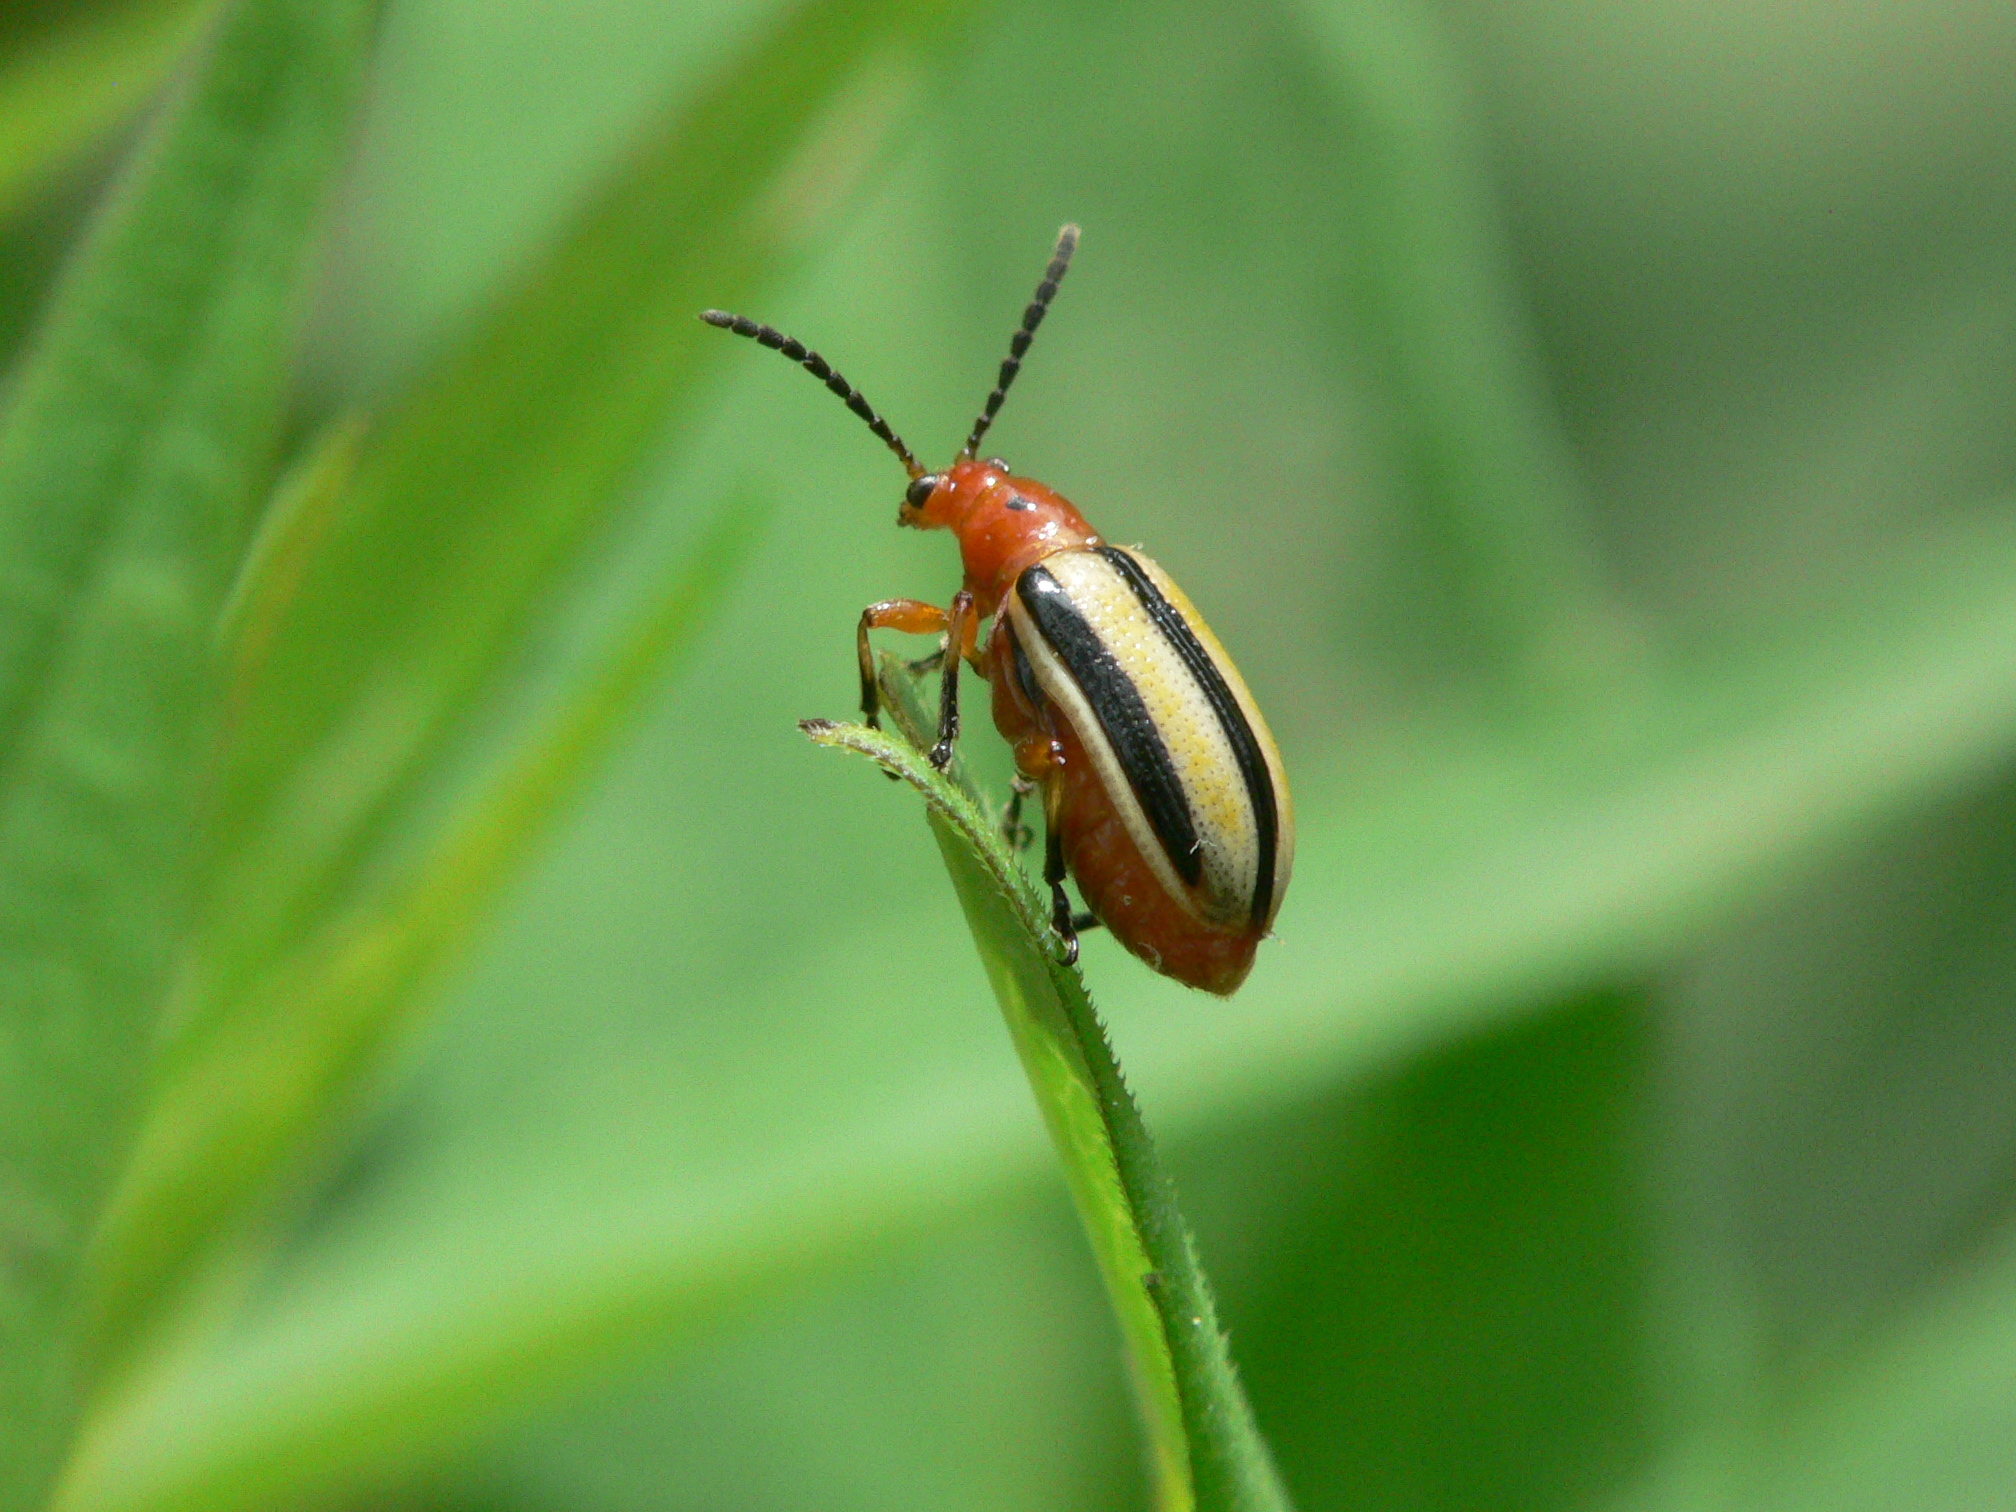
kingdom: Animalia
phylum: Arthropoda
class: Insecta
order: Coleoptera
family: Chrysomelidae
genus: Lema
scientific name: Lema daturaphila
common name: Leaf beetle
